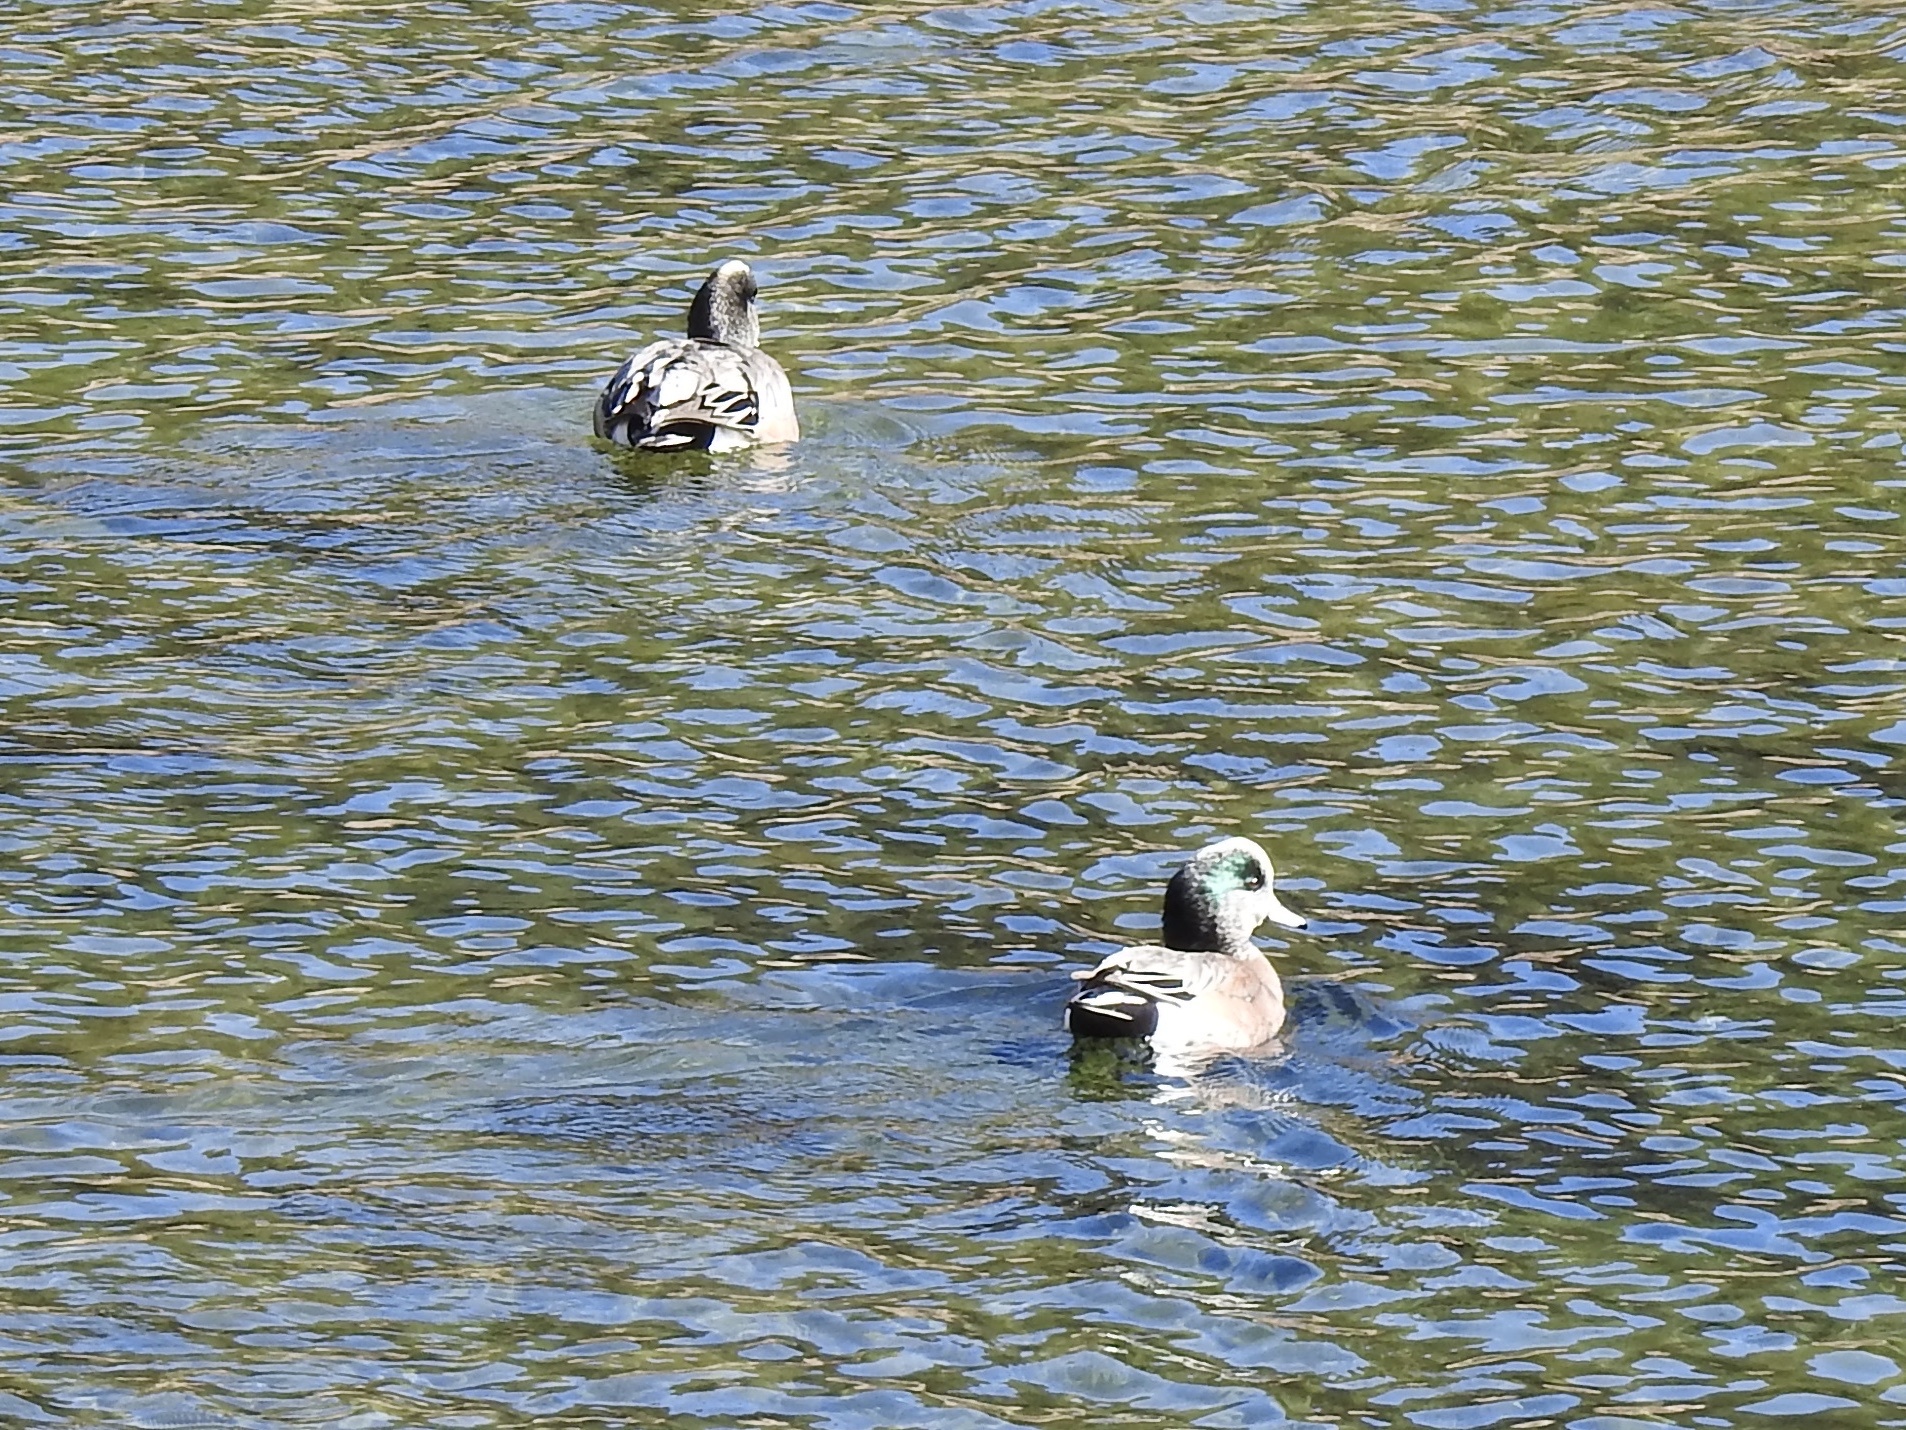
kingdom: Animalia
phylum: Chordata
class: Aves
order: Anseriformes
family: Anatidae
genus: Mareca
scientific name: Mareca americana
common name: American wigeon
